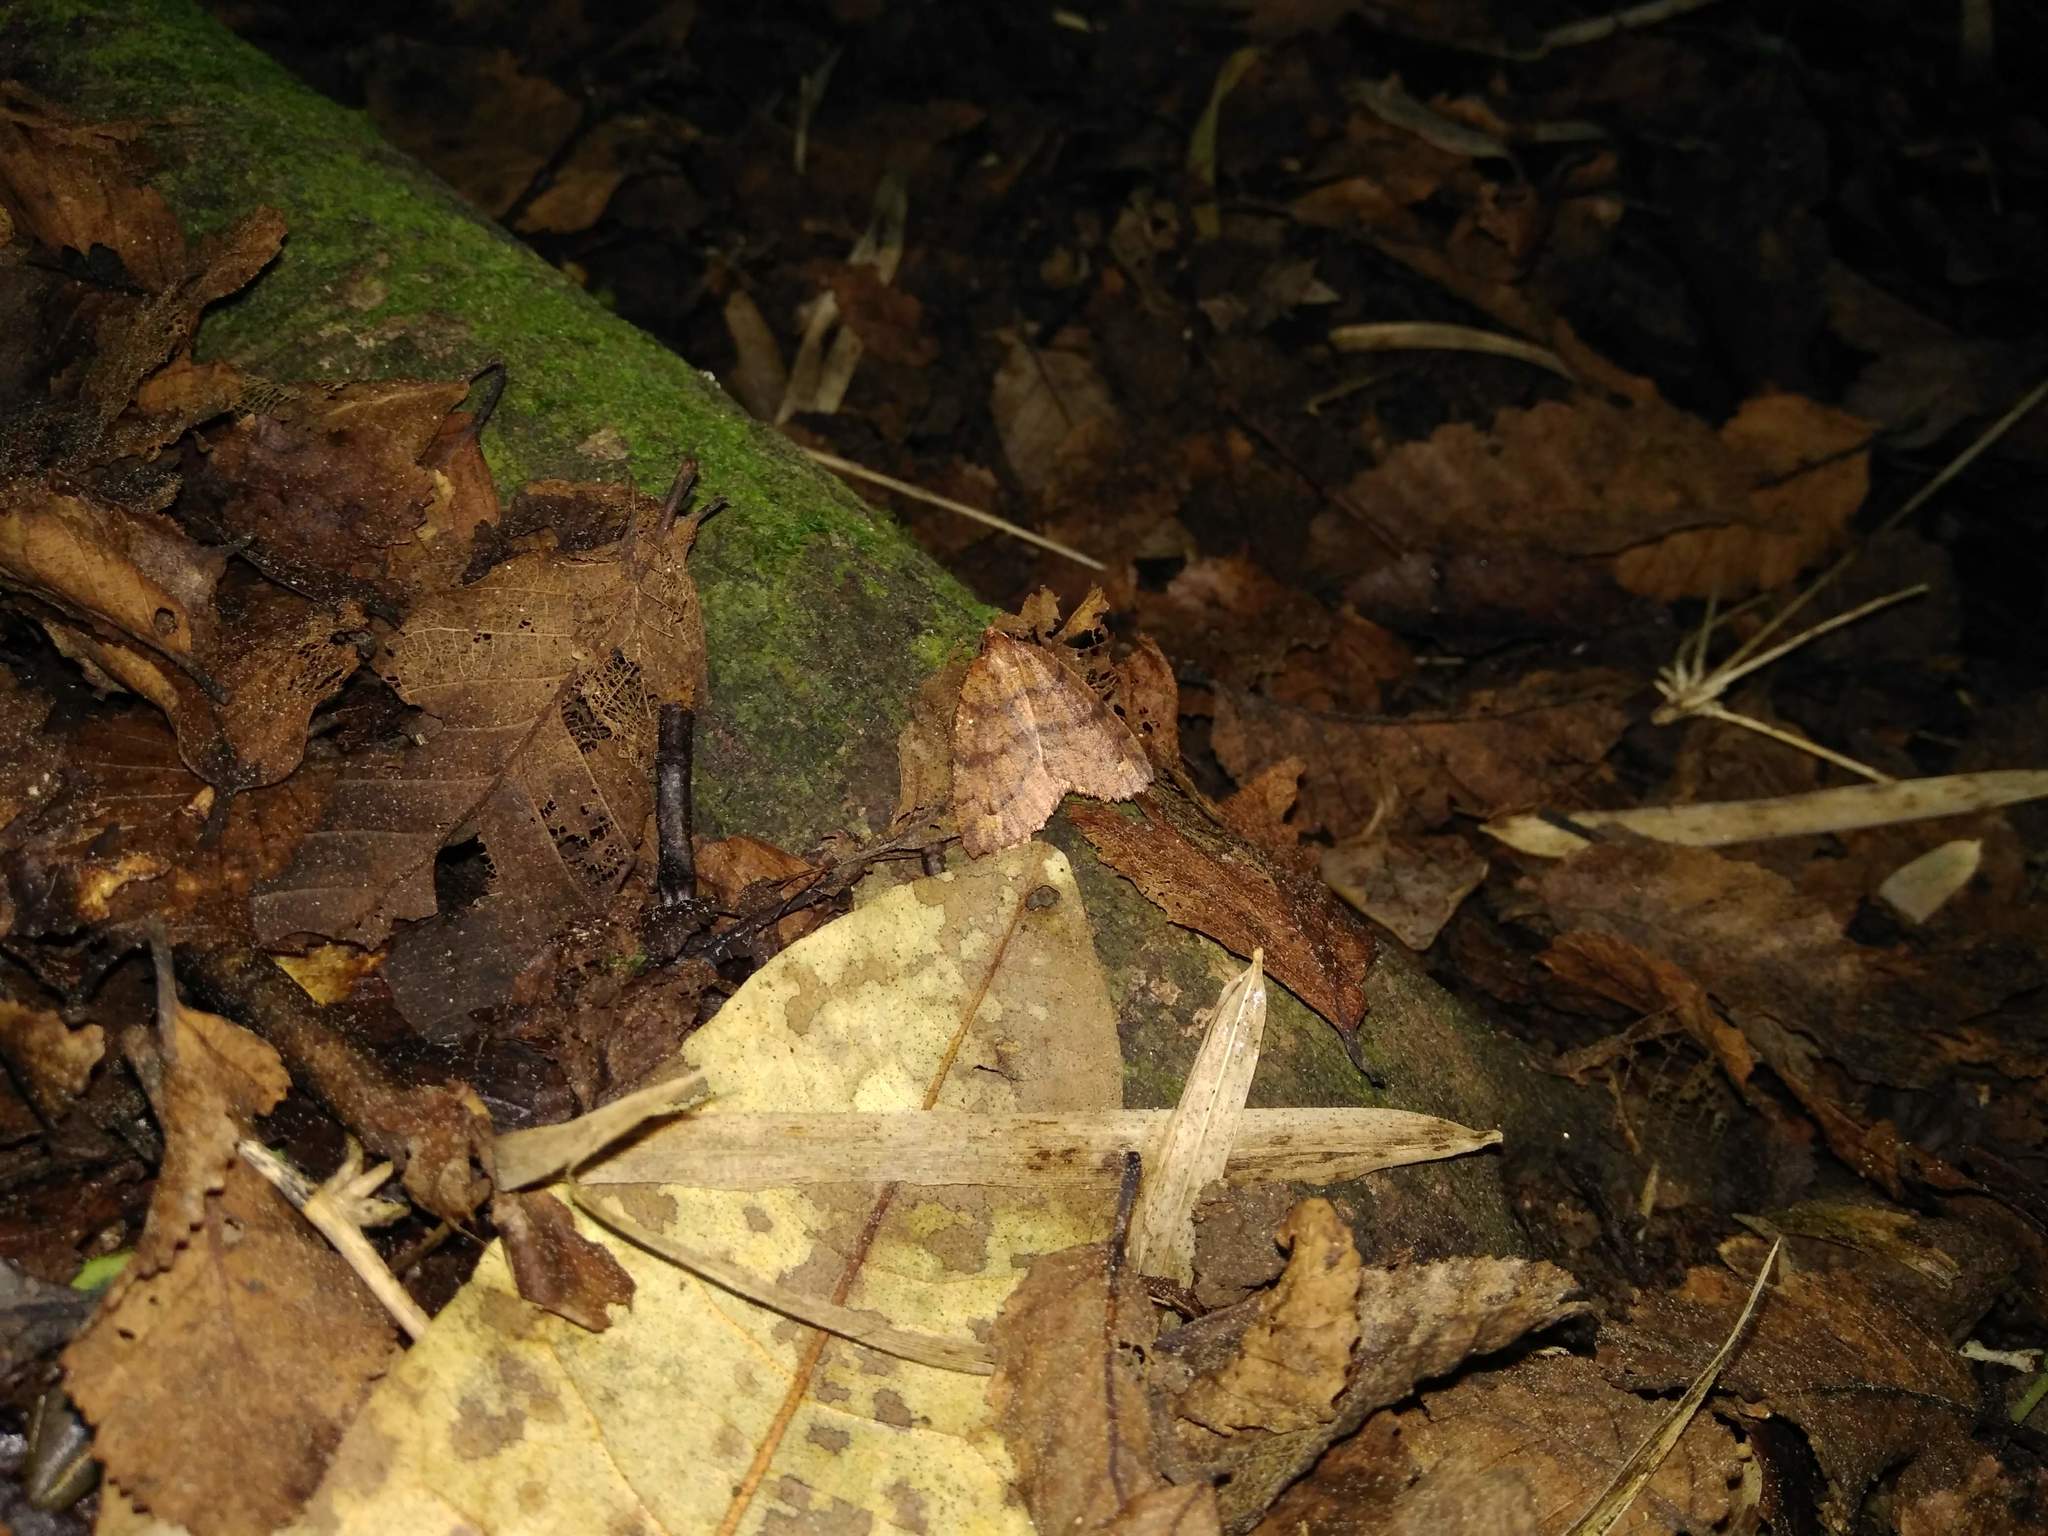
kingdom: Animalia
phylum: Arthropoda
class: Insecta
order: Lepidoptera
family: Geometridae
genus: Franciscoia
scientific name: Franciscoia
